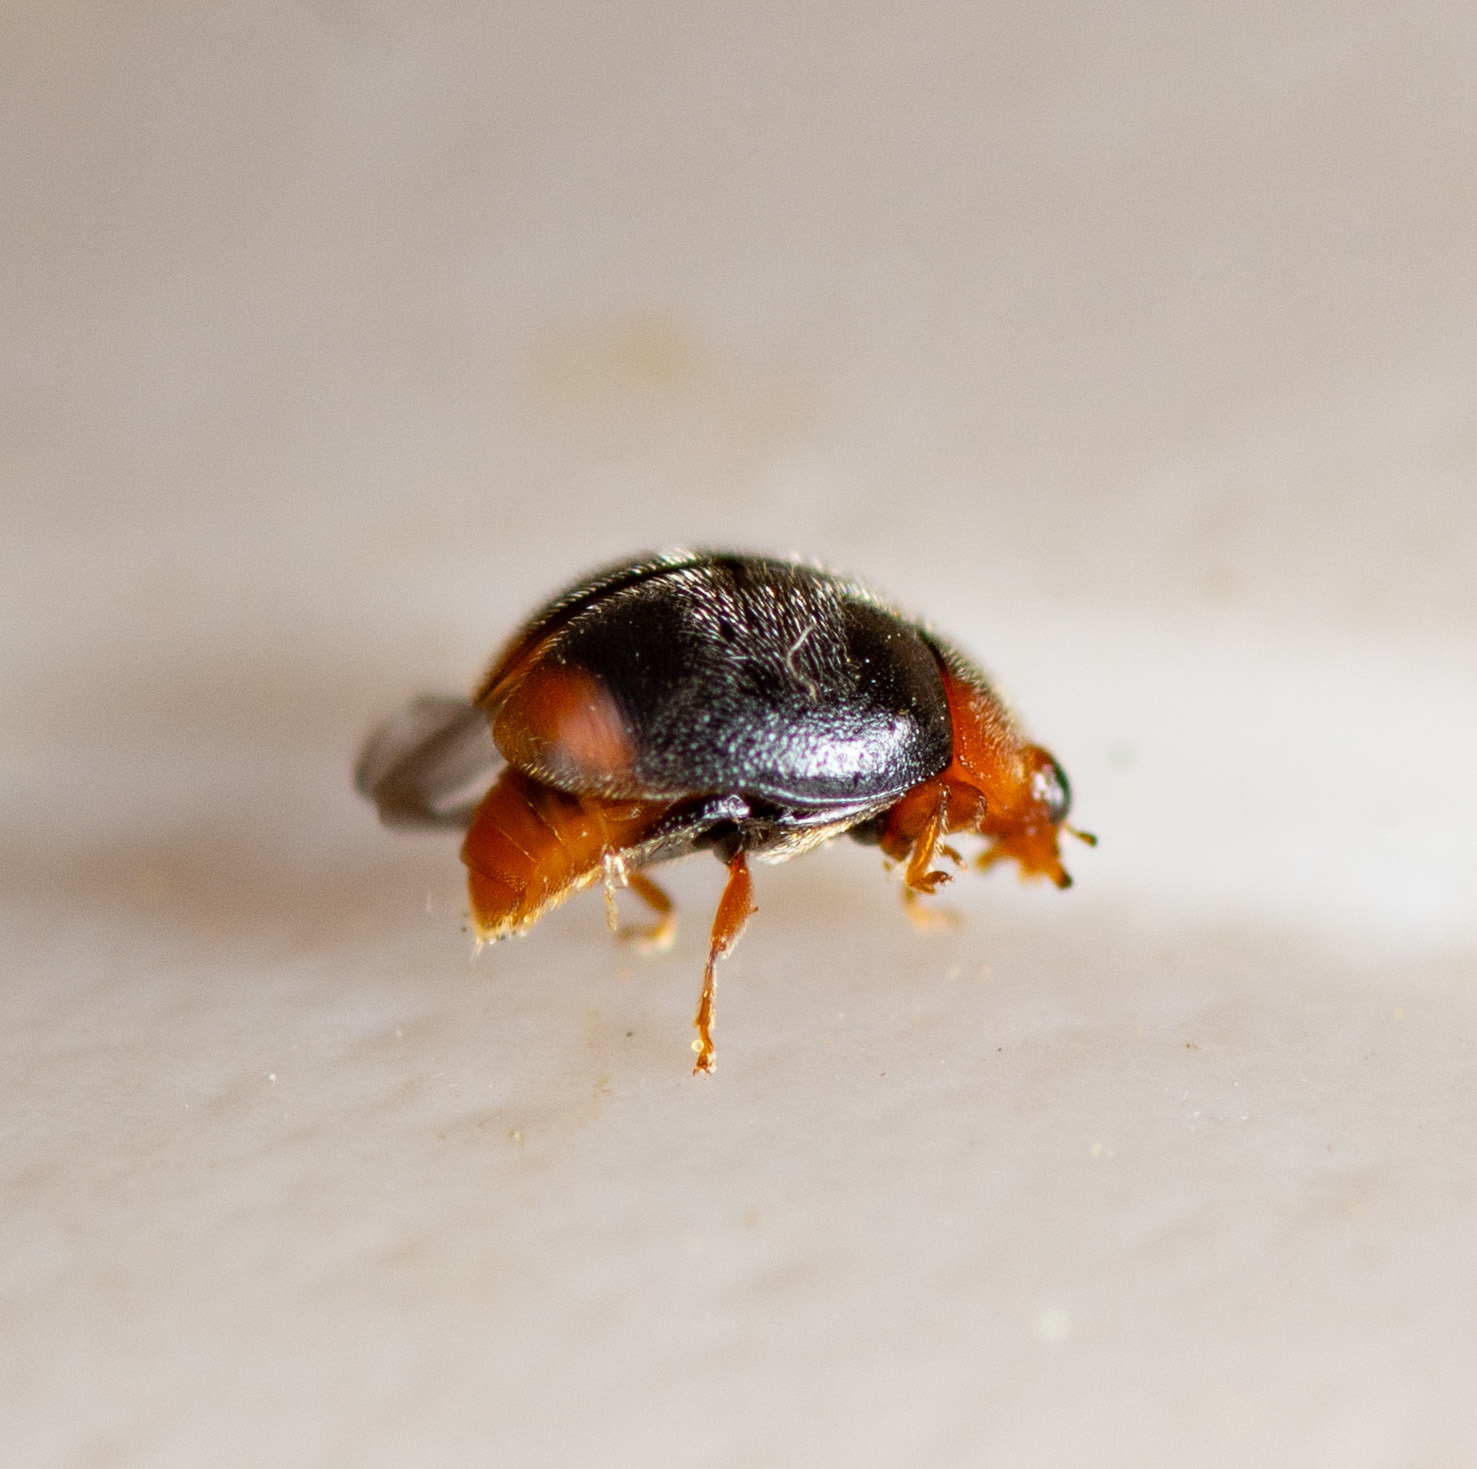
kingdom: Animalia
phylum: Arthropoda
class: Insecta
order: Coleoptera
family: Coccinellidae
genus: Scymnus
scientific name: Scymnus louisianae
